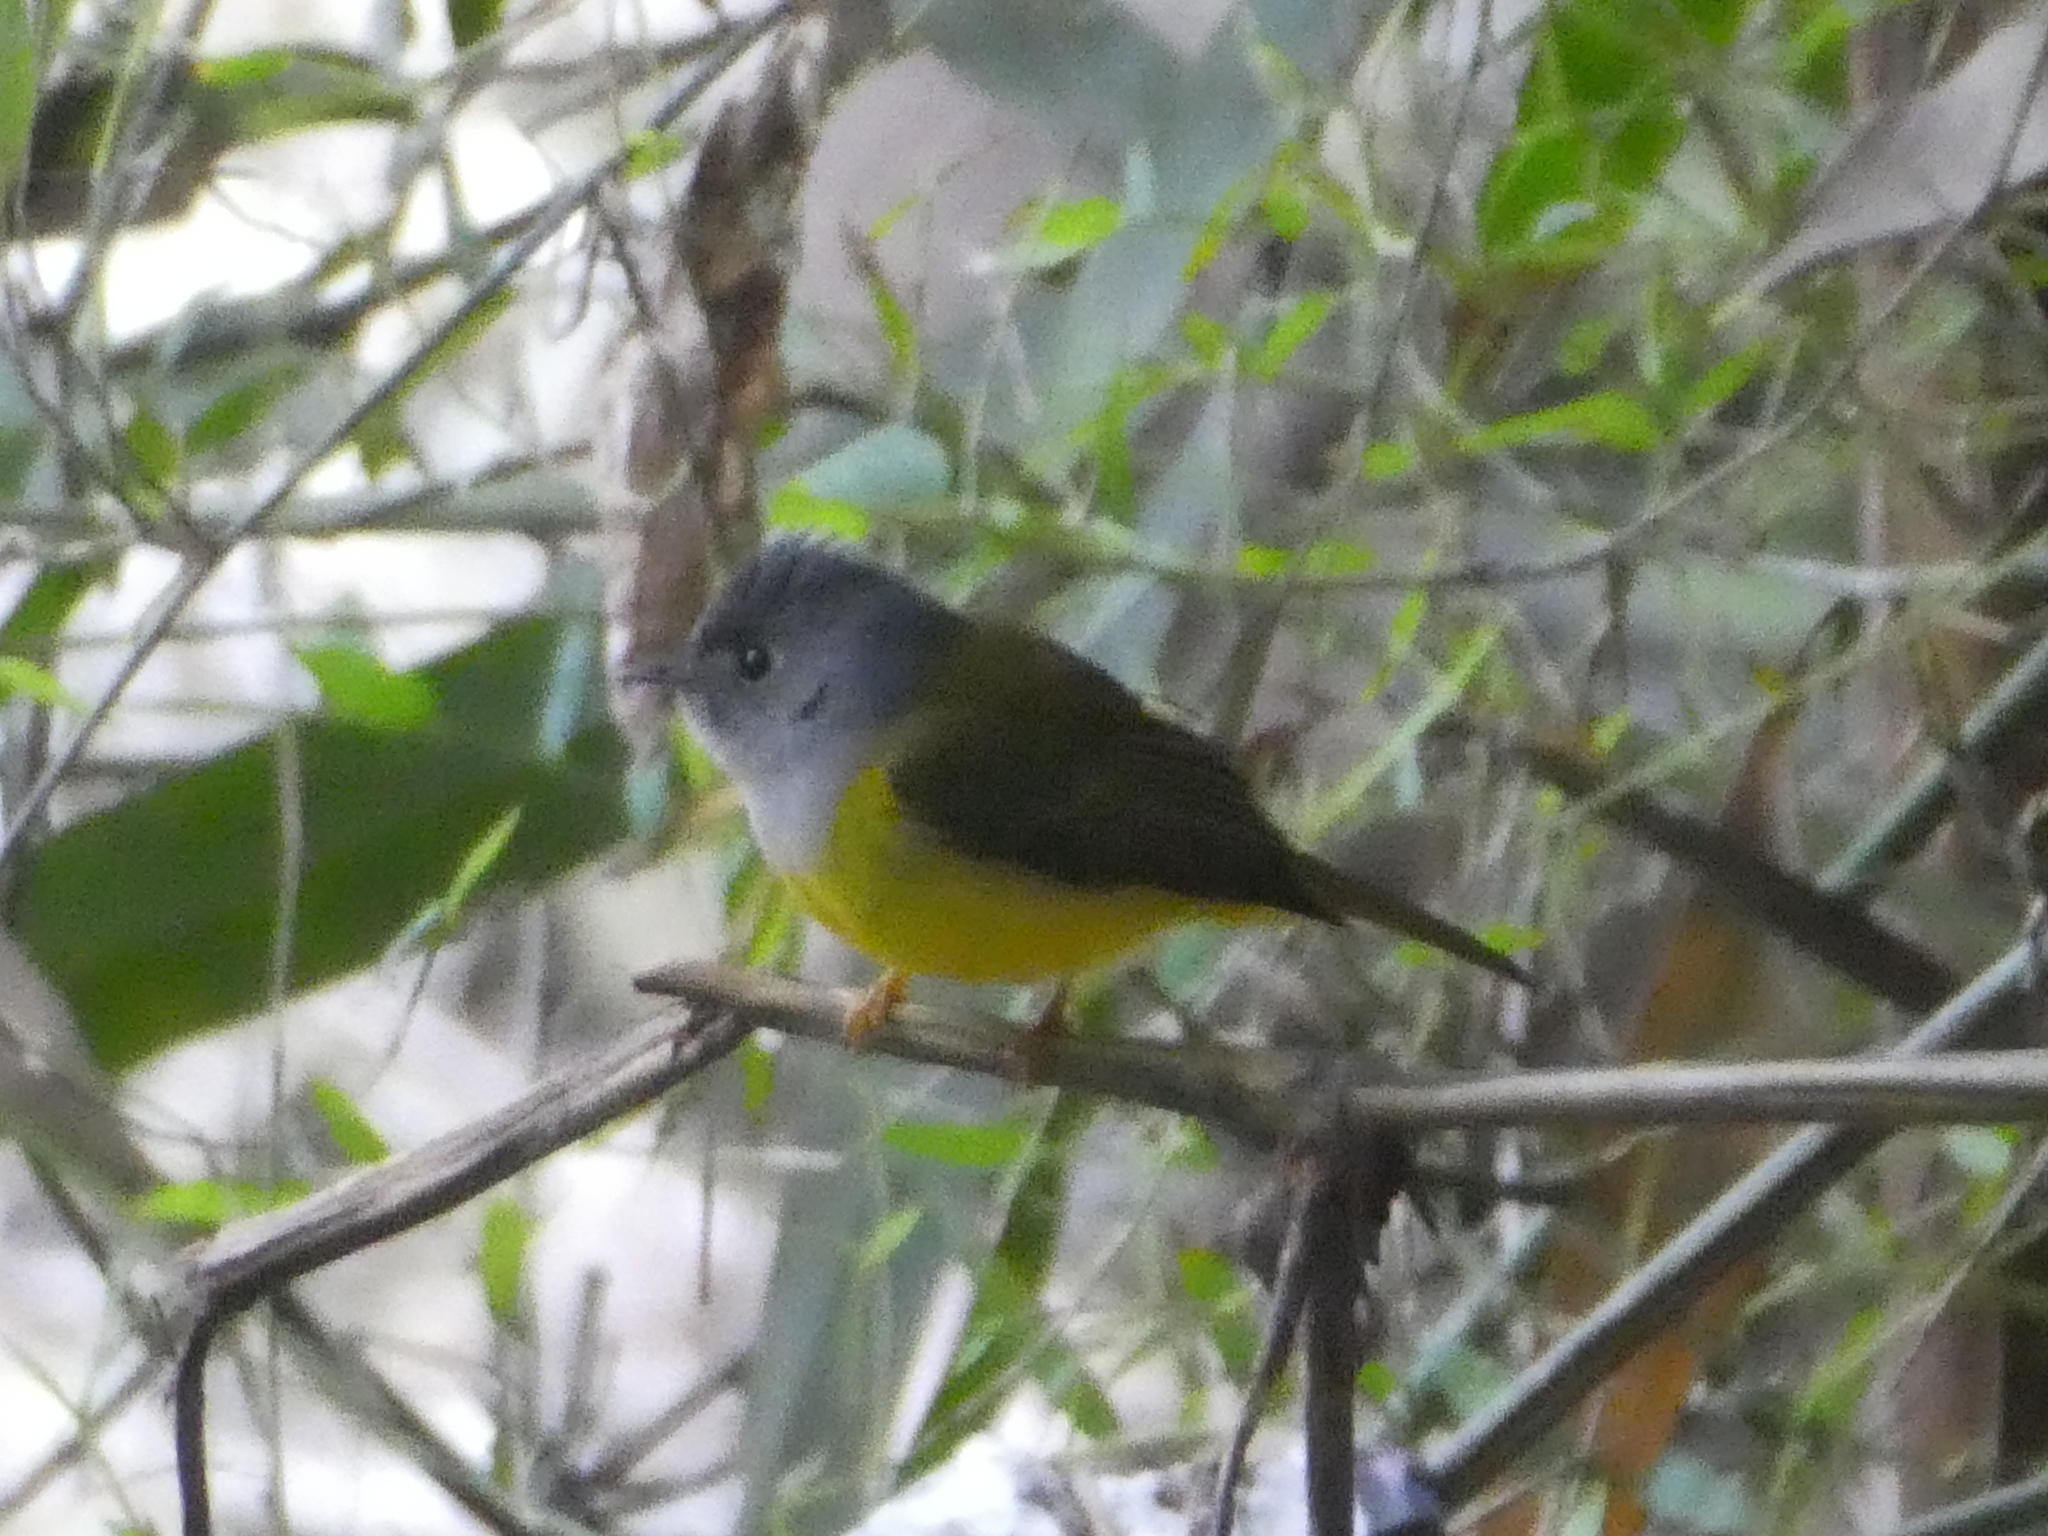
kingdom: Animalia
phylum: Chordata
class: Aves
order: Passeriformes
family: Stenostiridae
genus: Culicicapa
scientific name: Culicicapa ceylonensis
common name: Grey-headed canary-flycatcher
